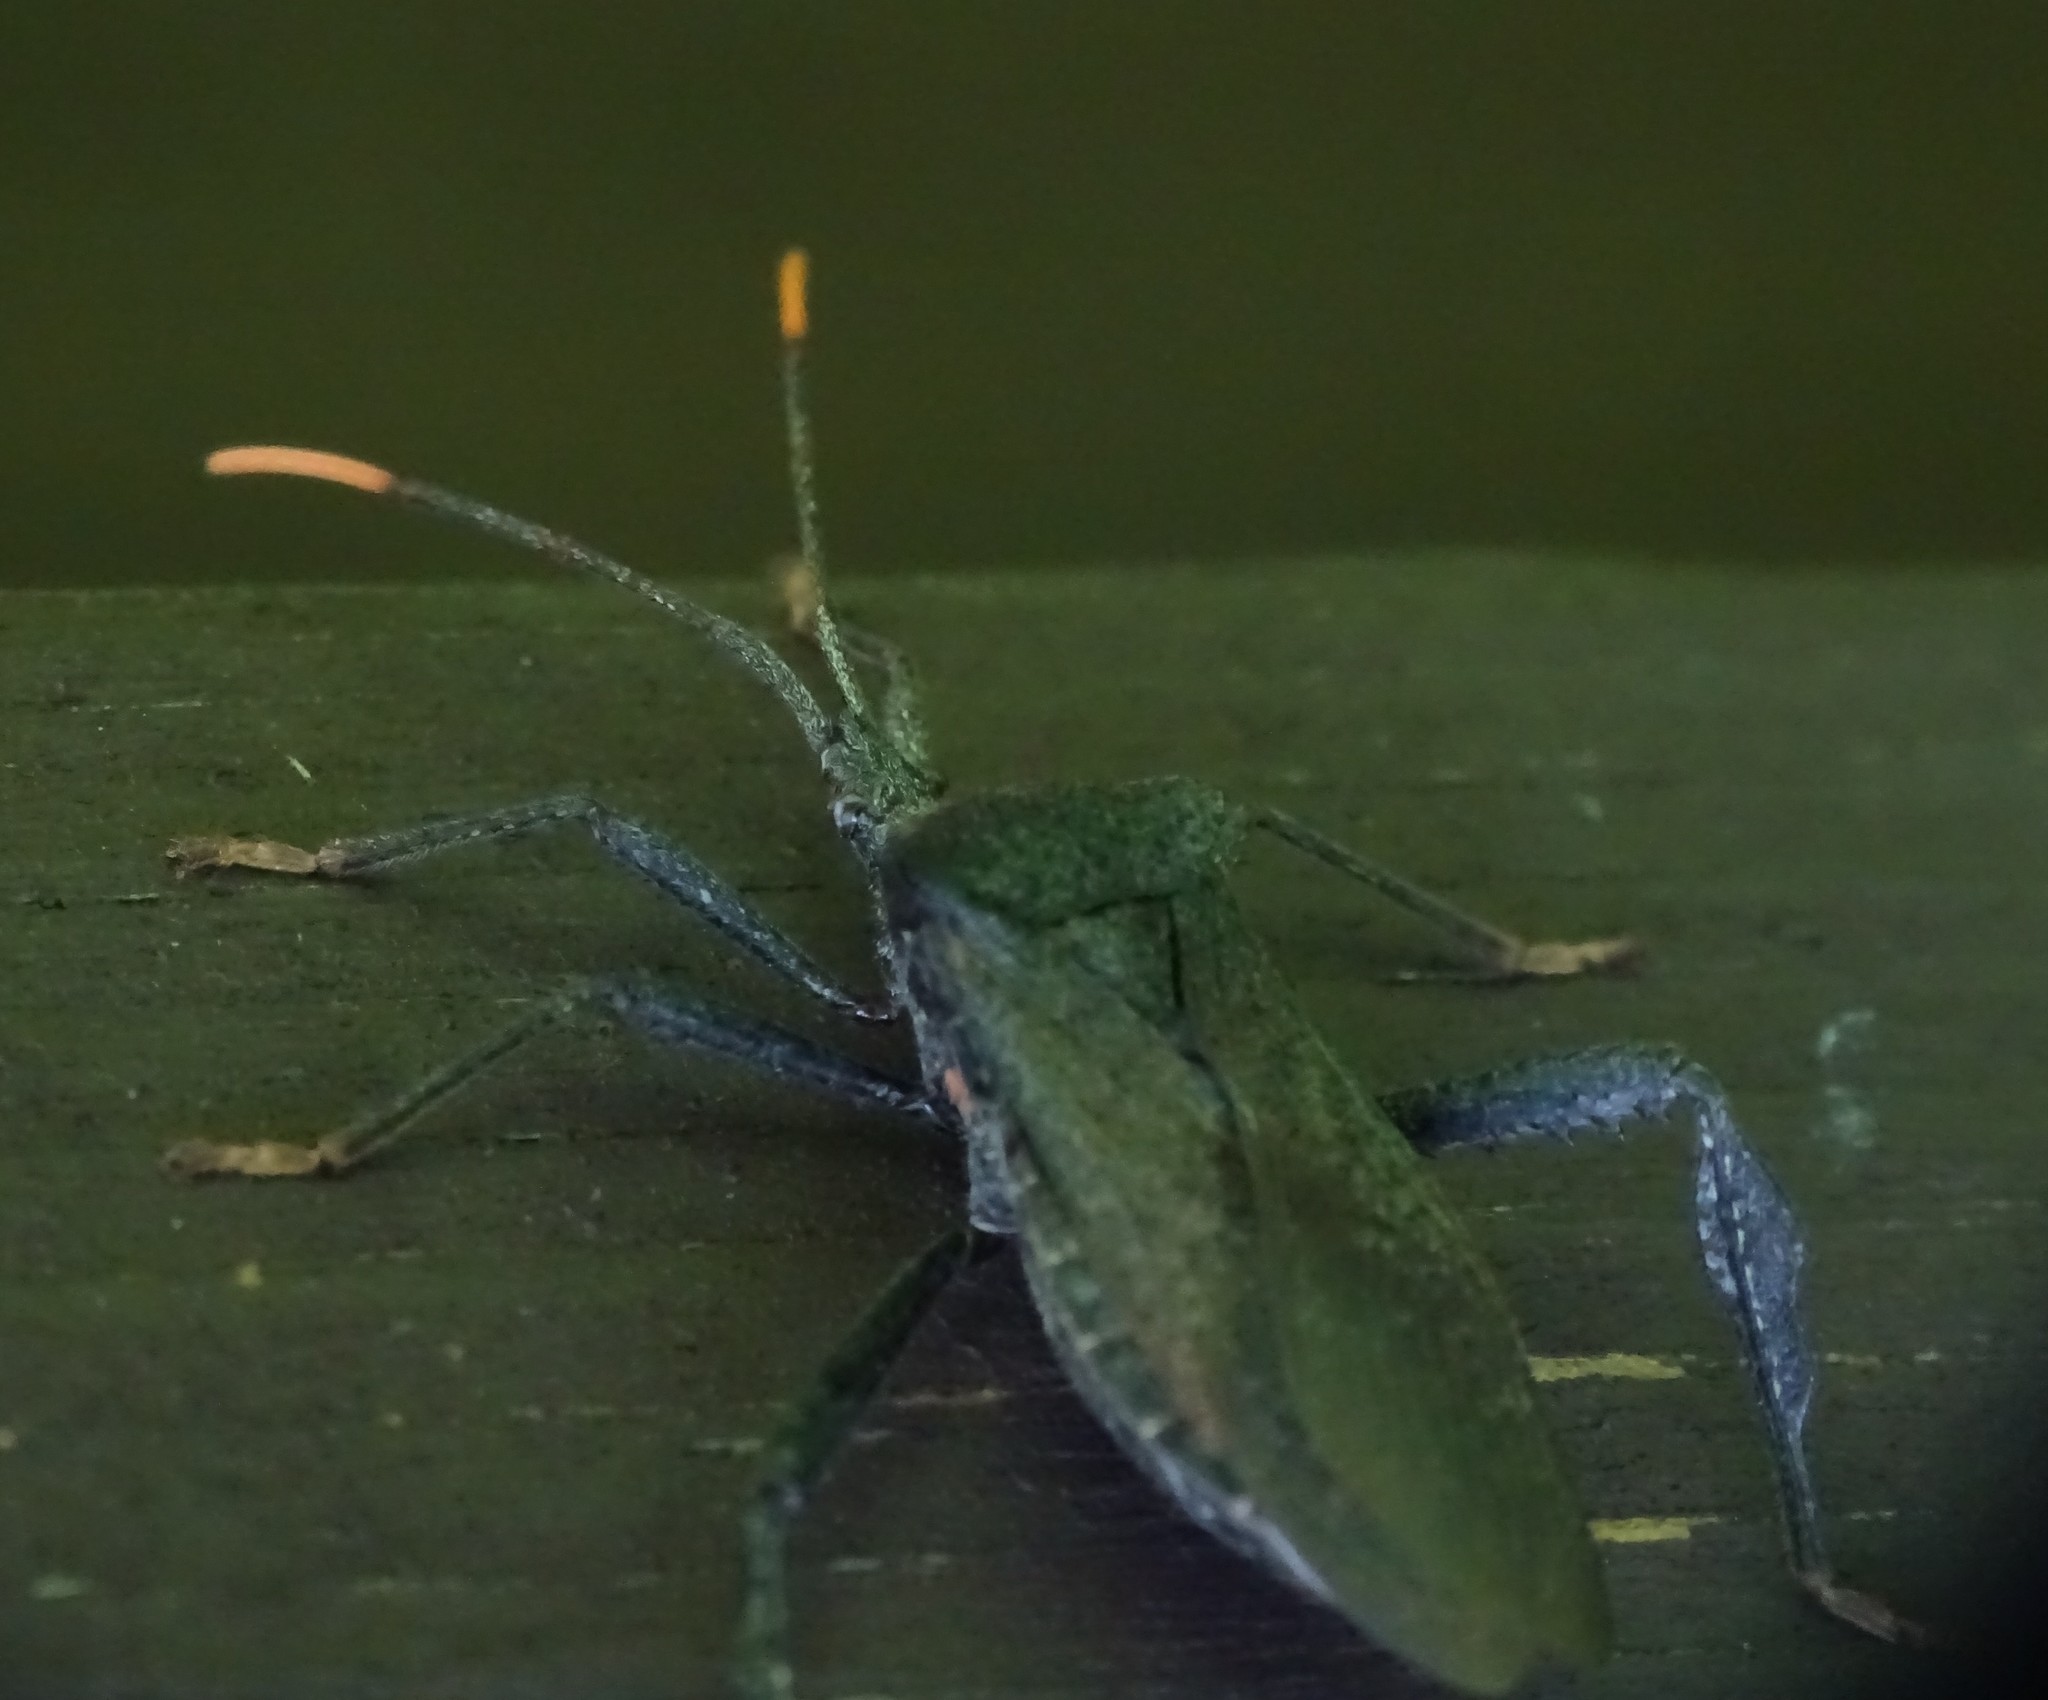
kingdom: Animalia
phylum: Arthropoda
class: Insecta
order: Hemiptera
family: Coreidae
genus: Acanthocephala
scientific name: Acanthocephala terminalis
